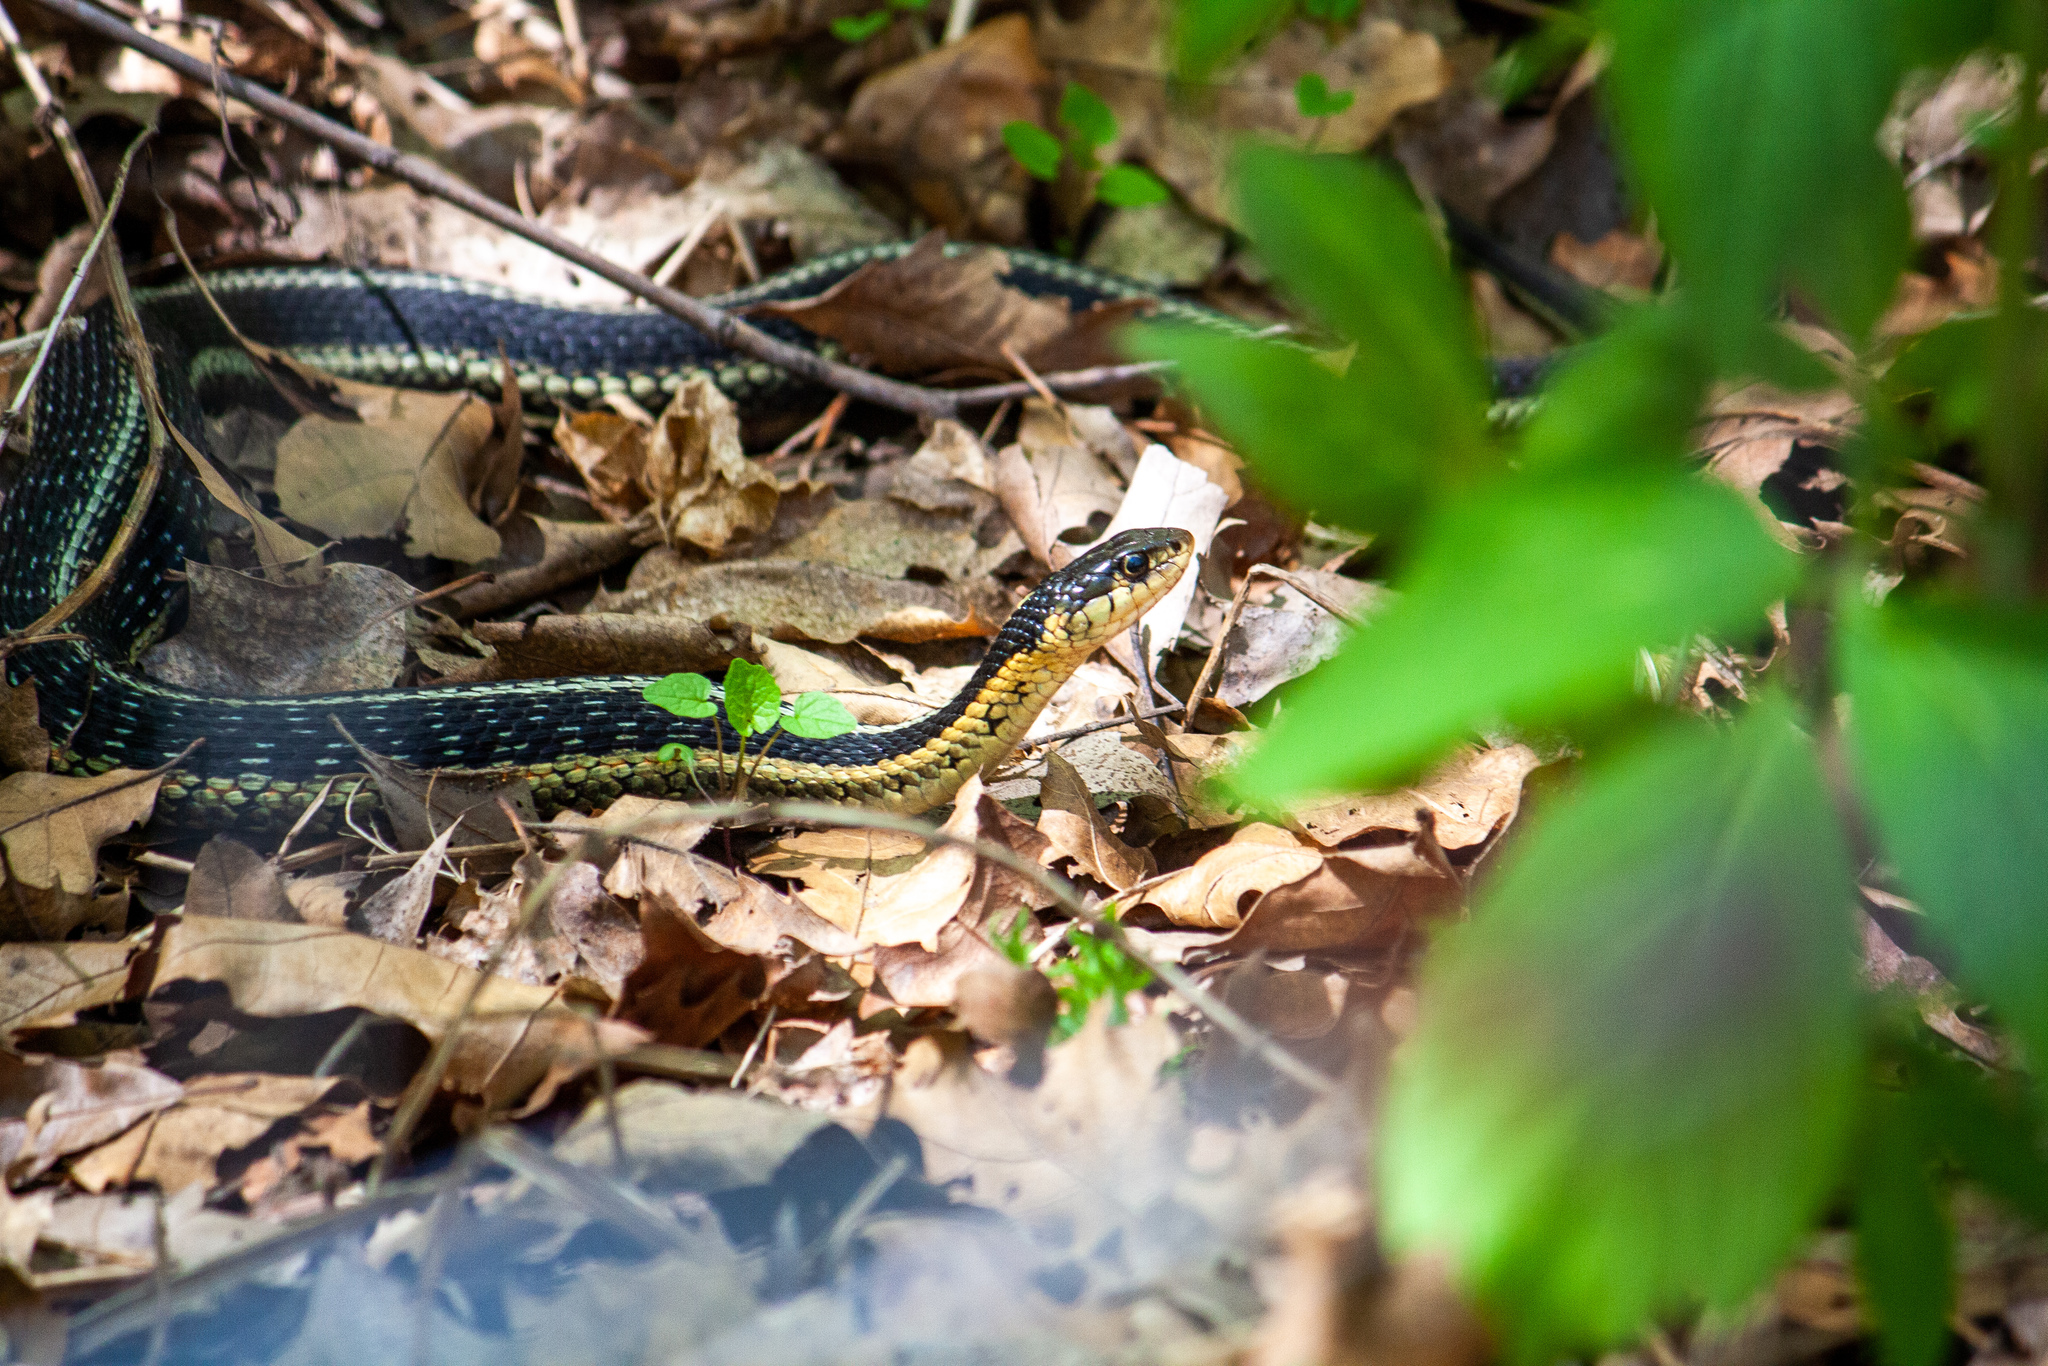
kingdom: Animalia
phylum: Chordata
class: Squamata
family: Colubridae
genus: Thamnophis
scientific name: Thamnophis sirtalis
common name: Common garter snake
